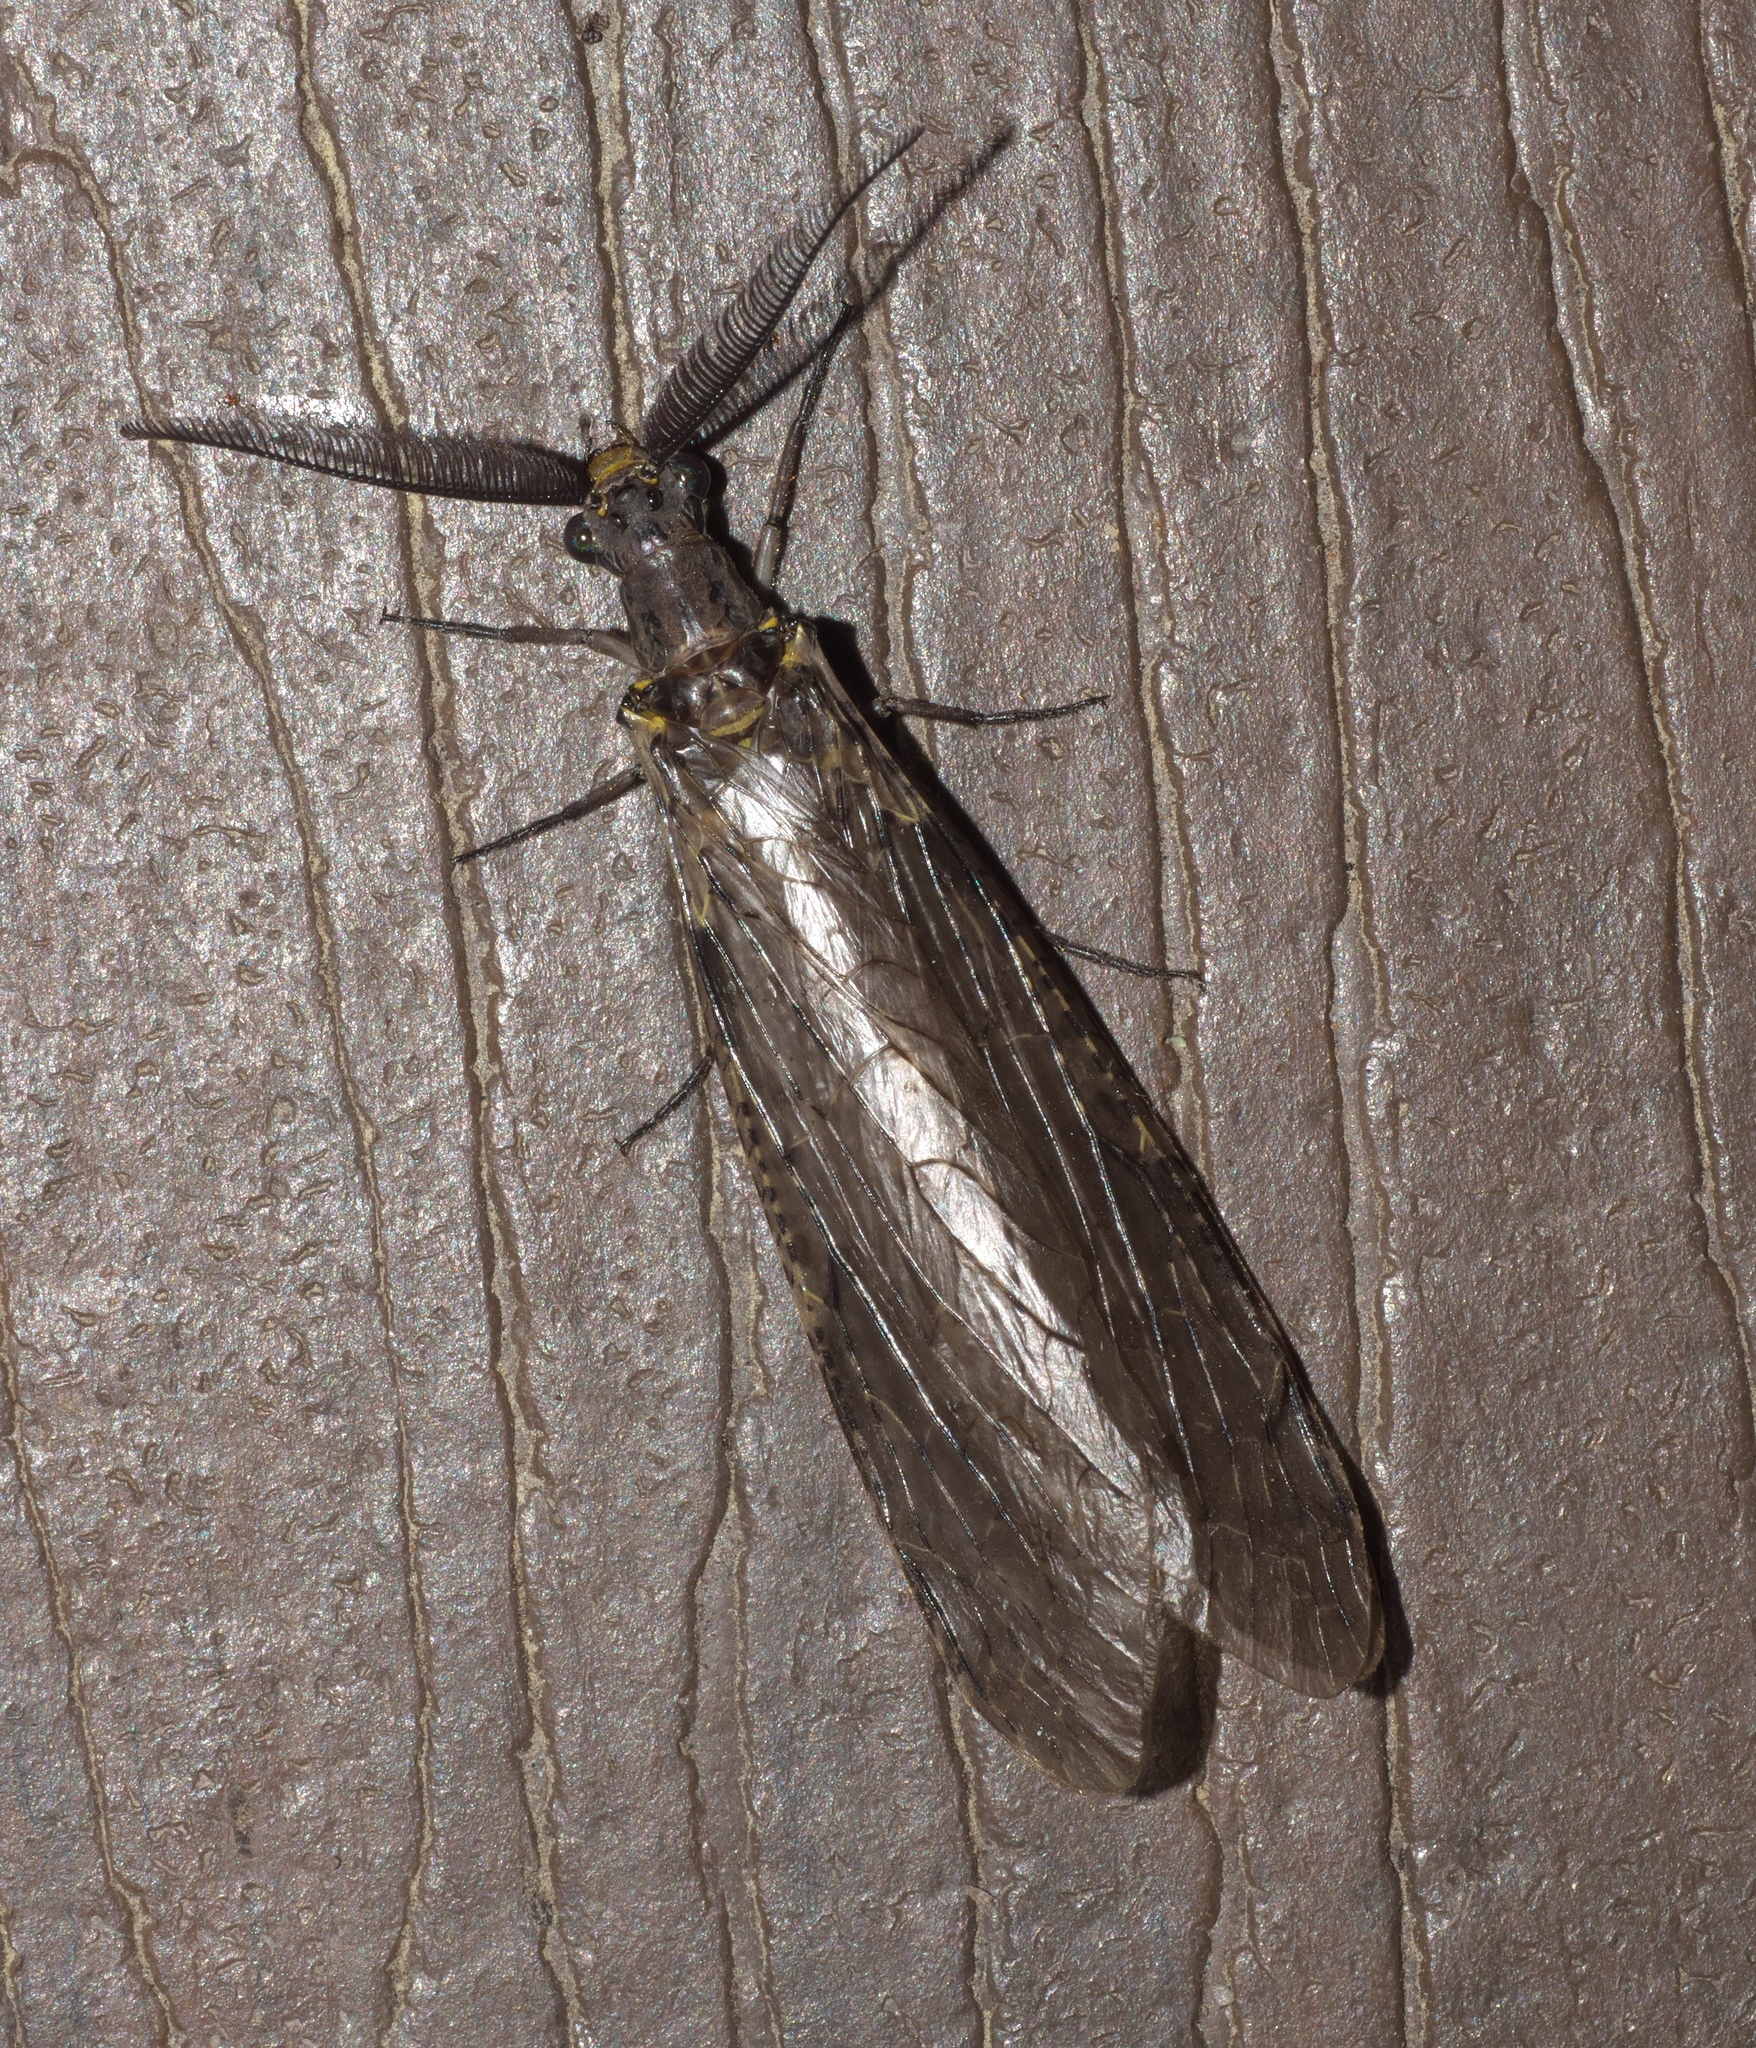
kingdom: Animalia
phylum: Arthropoda
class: Insecta
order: Megaloptera
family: Corydalidae
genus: Chauliodes
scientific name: Chauliodes rastricornis
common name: Spring fishfly
